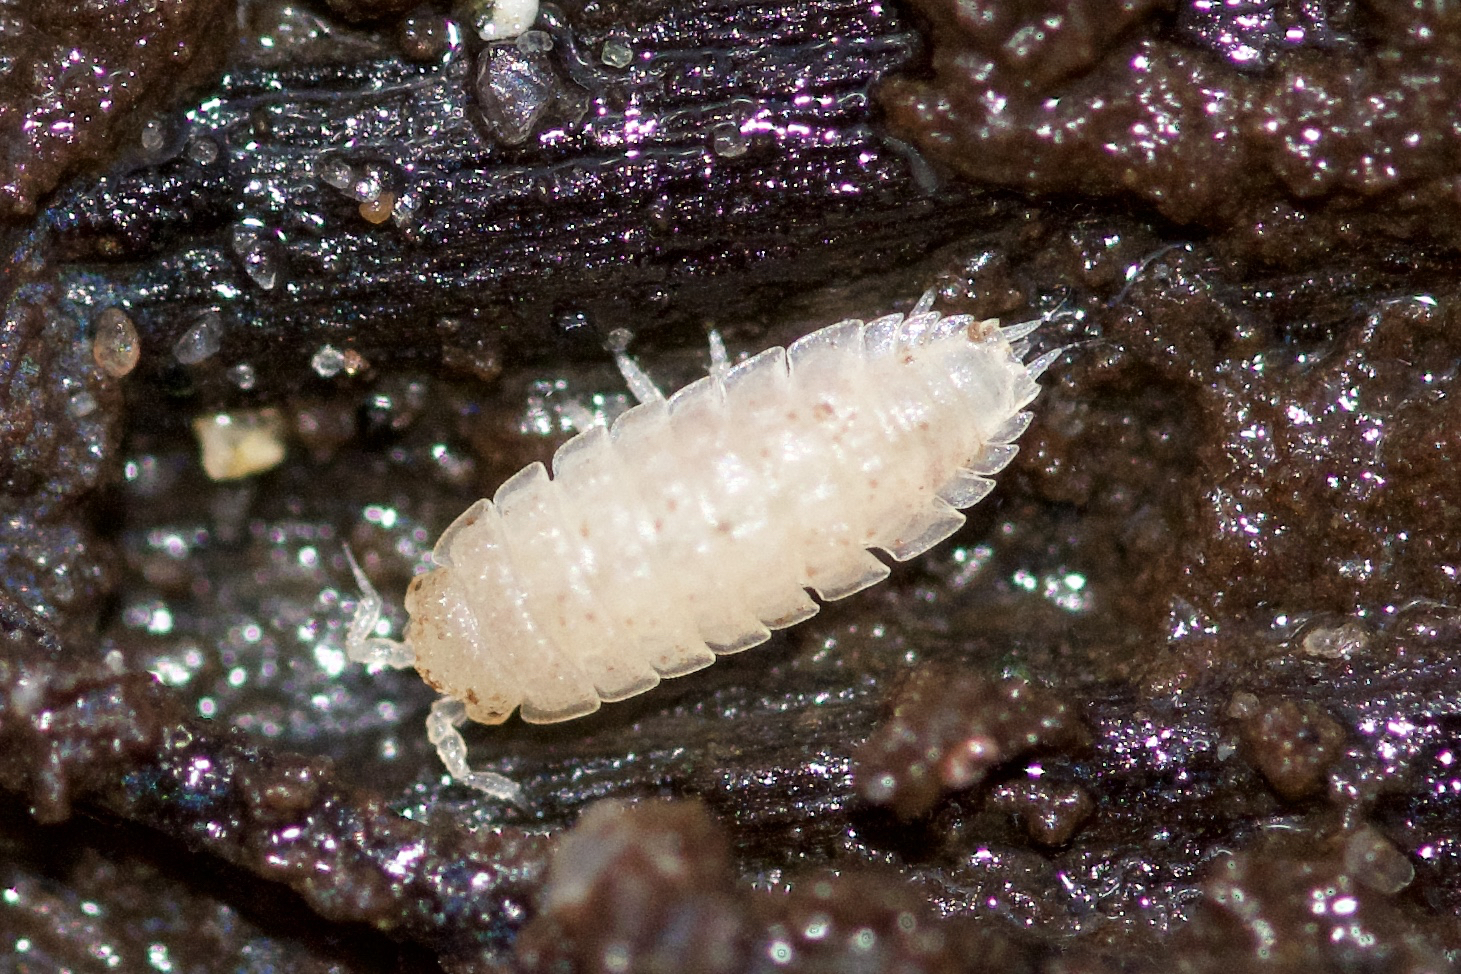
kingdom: Animalia
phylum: Arthropoda
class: Malacostraca
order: Isopoda
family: Trichoniscidae
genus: Haplophthalmus
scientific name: Haplophthalmus danicus
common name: Pillbug
